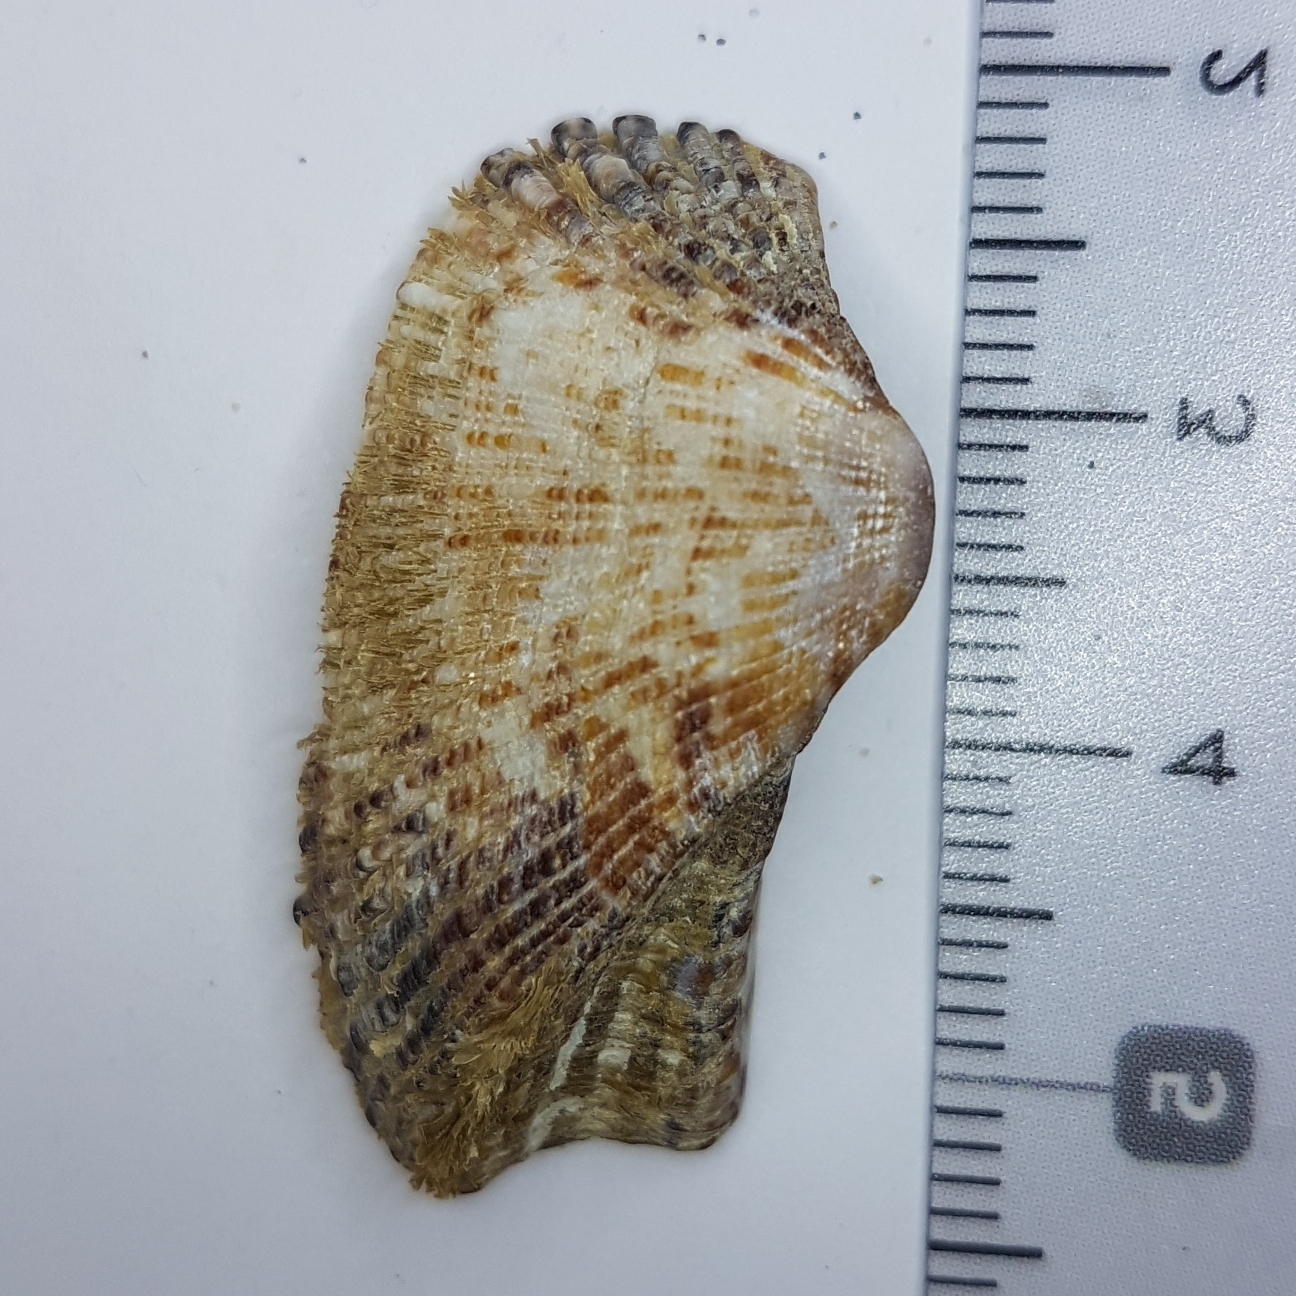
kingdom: Animalia
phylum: Mollusca
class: Bivalvia
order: Arcida
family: Arcidae
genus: Arca
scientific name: Arca noae
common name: Noah's arch
